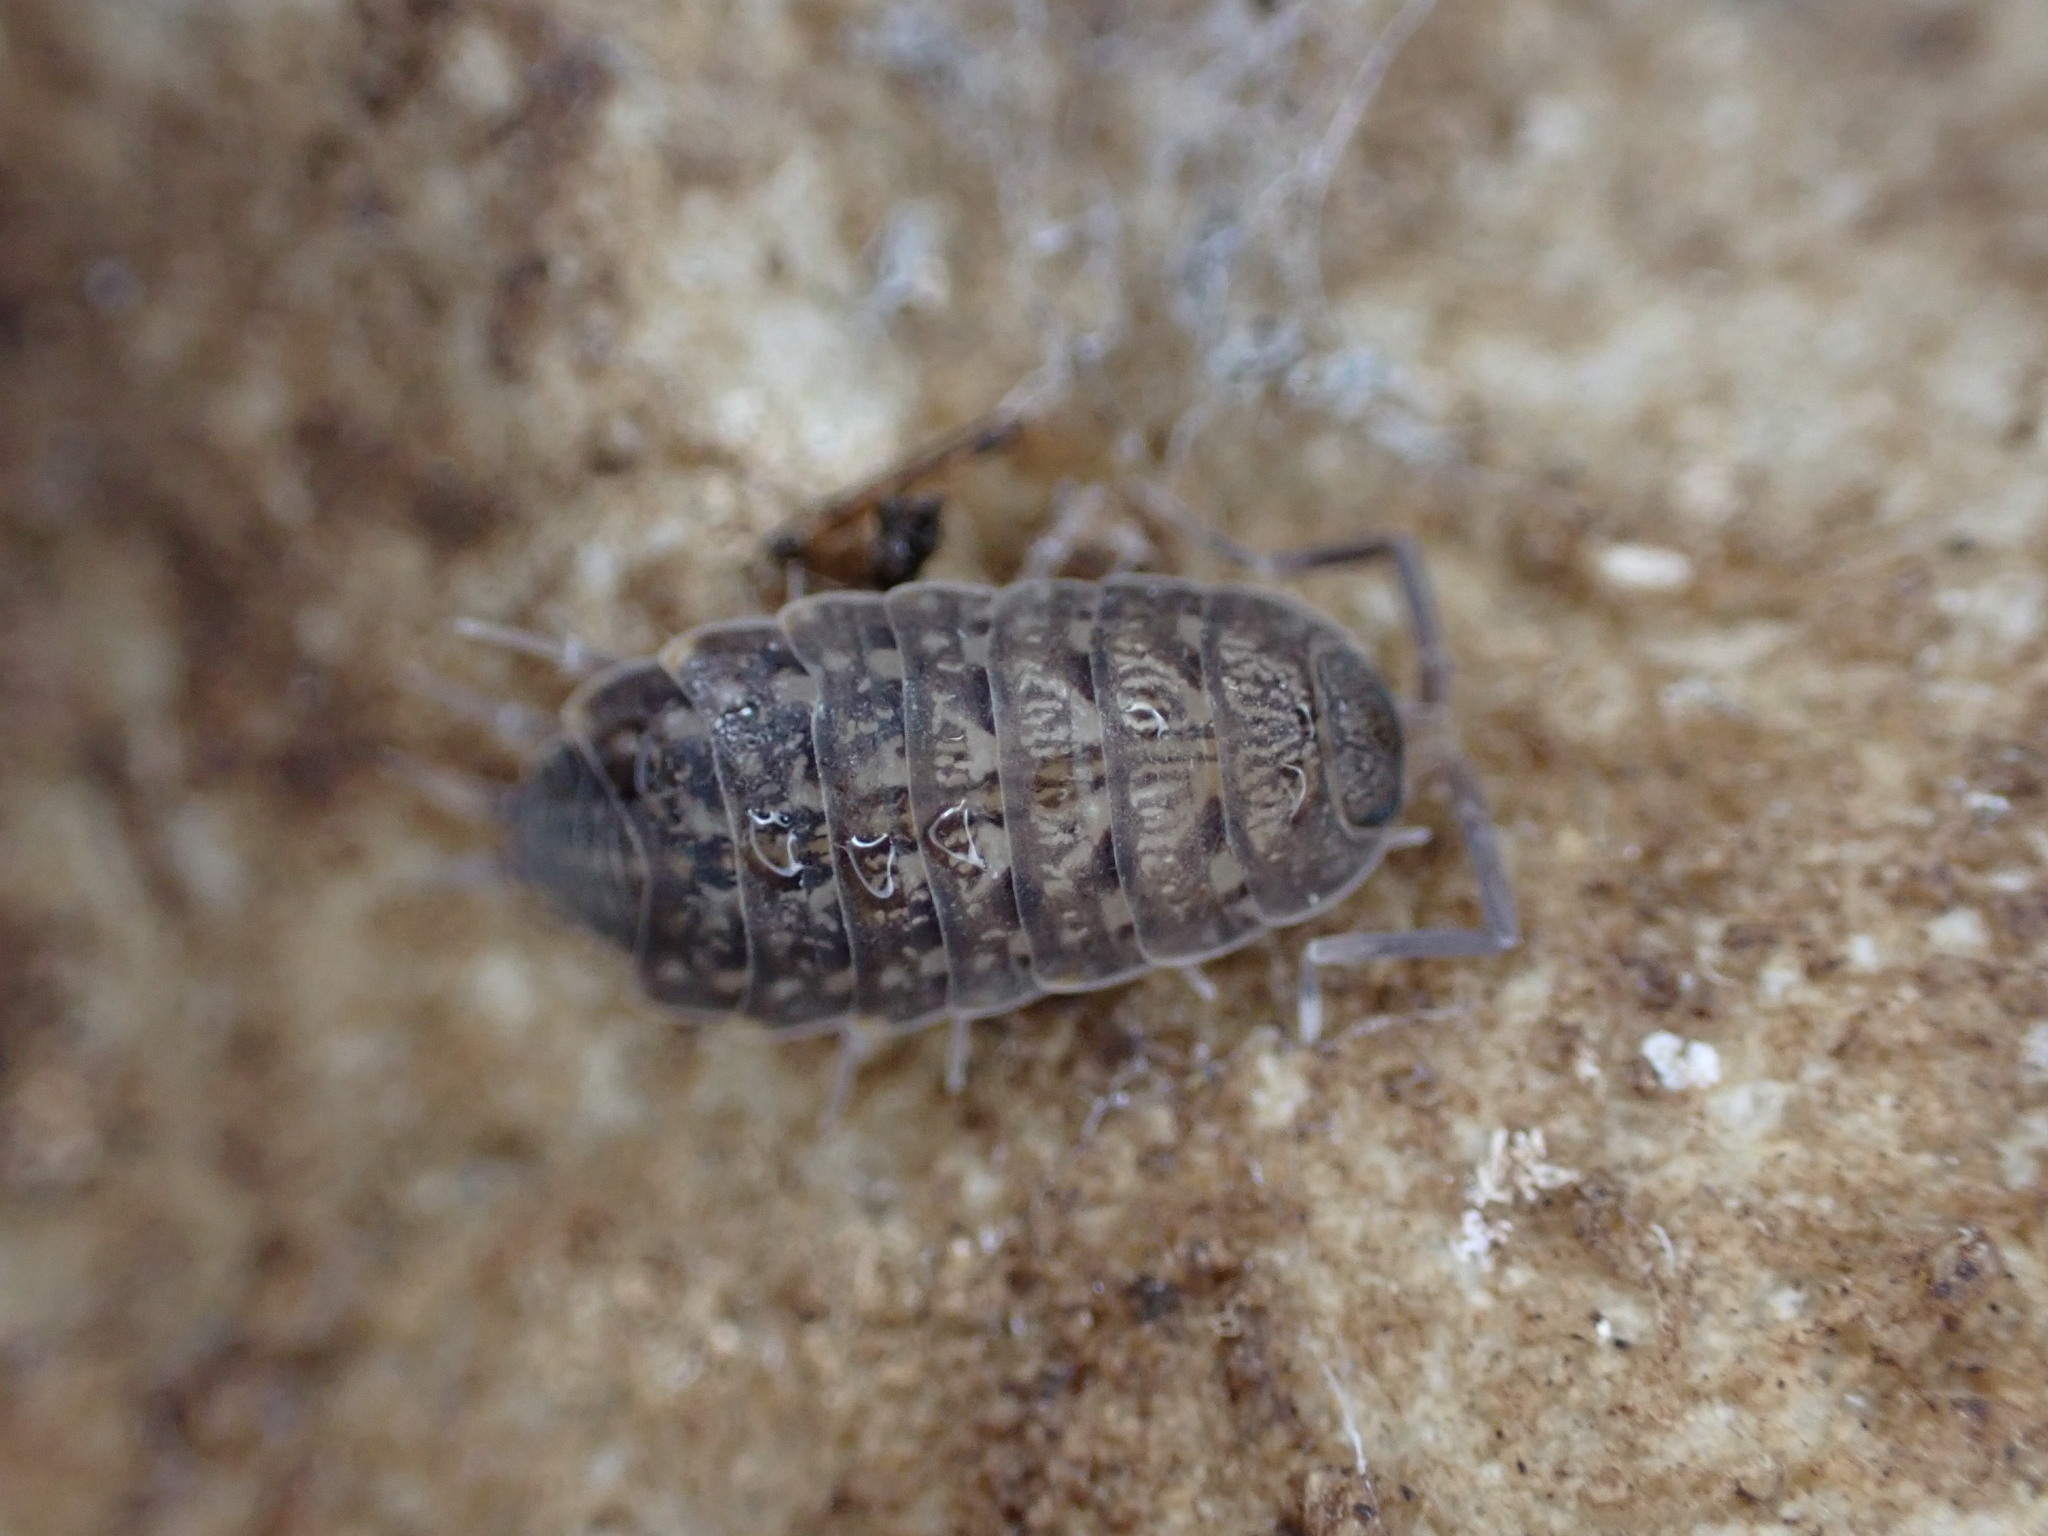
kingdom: Animalia
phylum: Arthropoda
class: Malacostraca
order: Isopoda
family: Agnaridae
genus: Orthometopon
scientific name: Orthometopon planum
